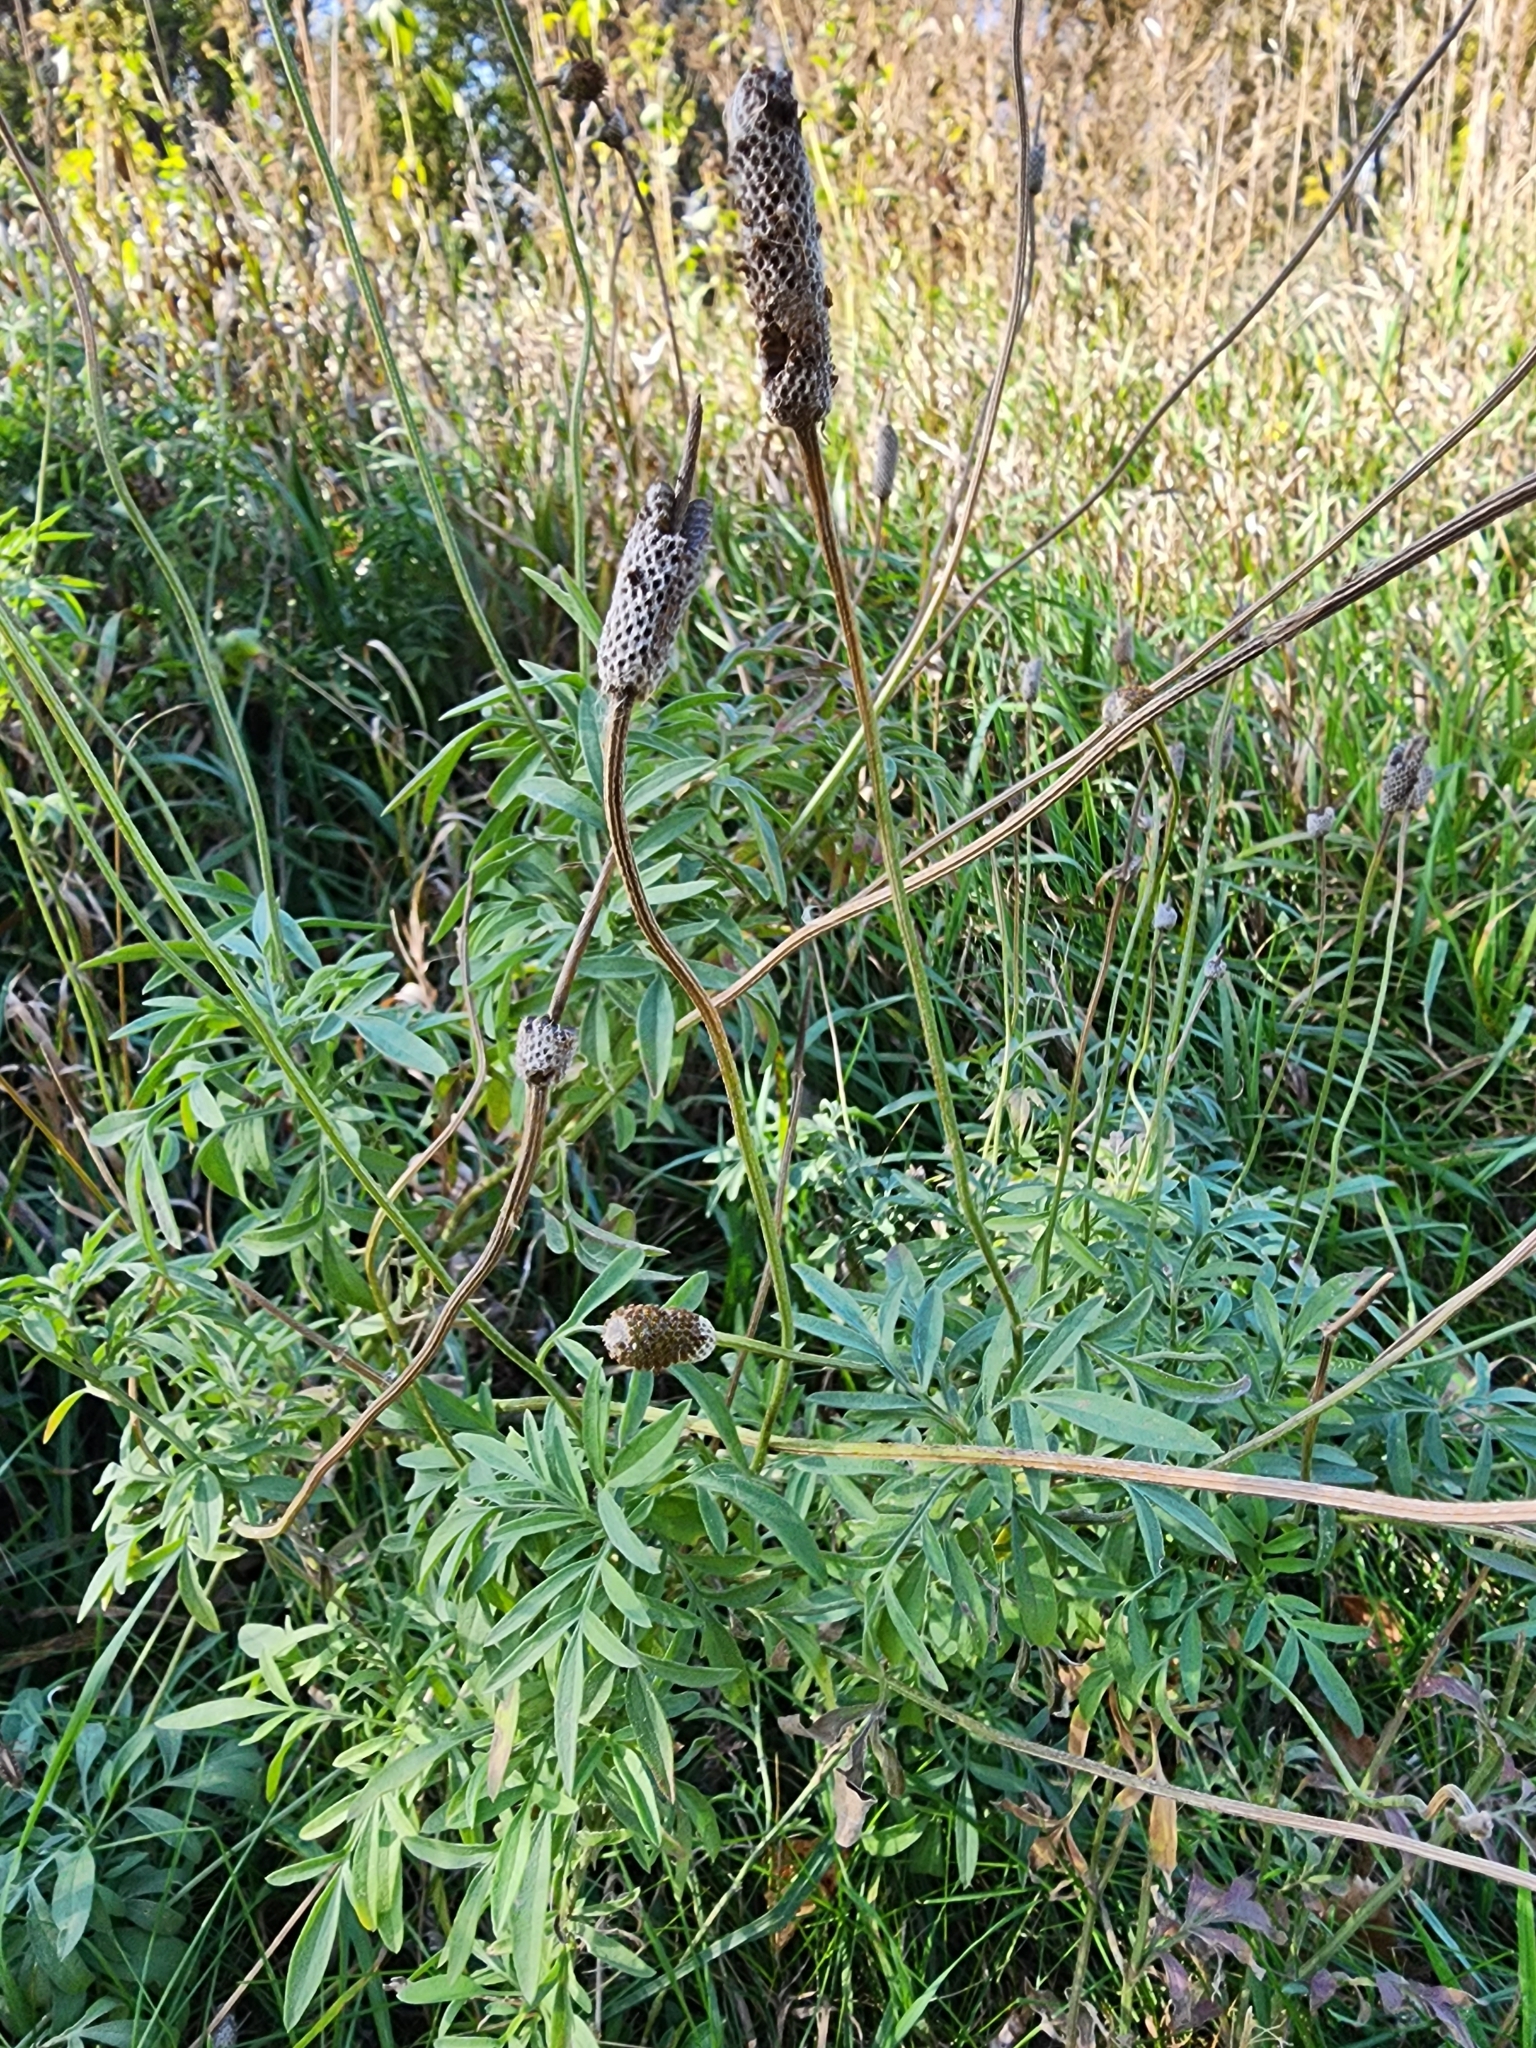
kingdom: Plantae
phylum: Tracheophyta
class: Magnoliopsida
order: Fabales
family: Fabaceae
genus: Dalea
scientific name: Dalea candida
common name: White prairie-clover
